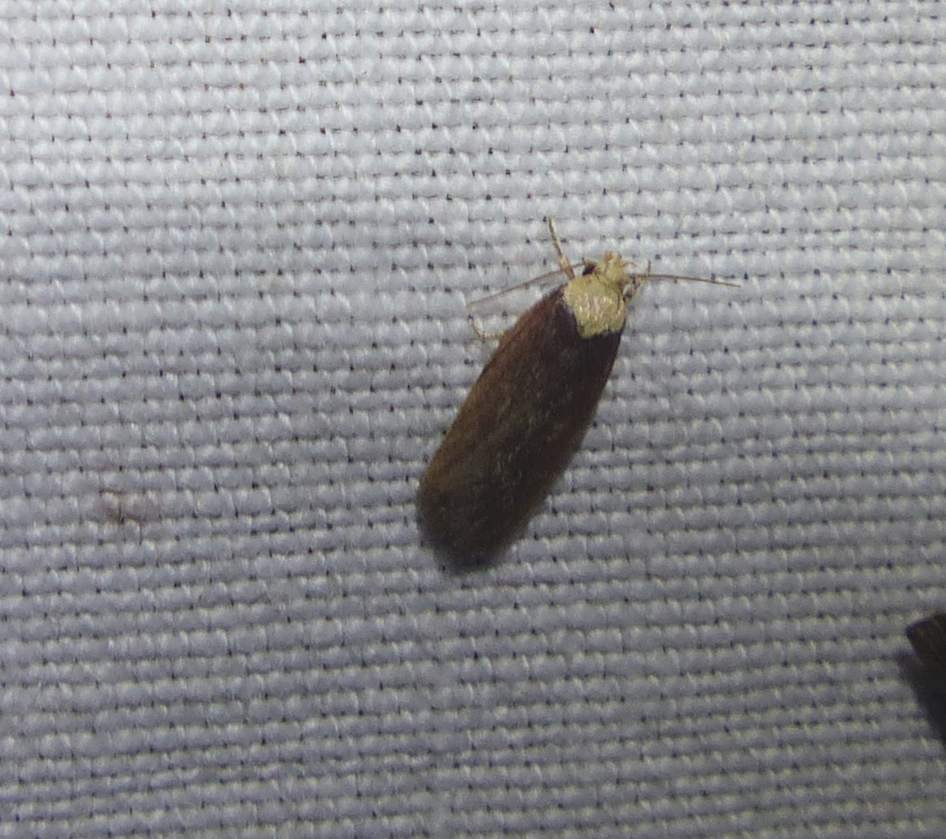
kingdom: Animalia
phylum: Arthropoda
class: Insecta
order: Lepidoptera
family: Depressariidae
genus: Depressaria
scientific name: Depressaria depressana
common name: Lost flat-body
